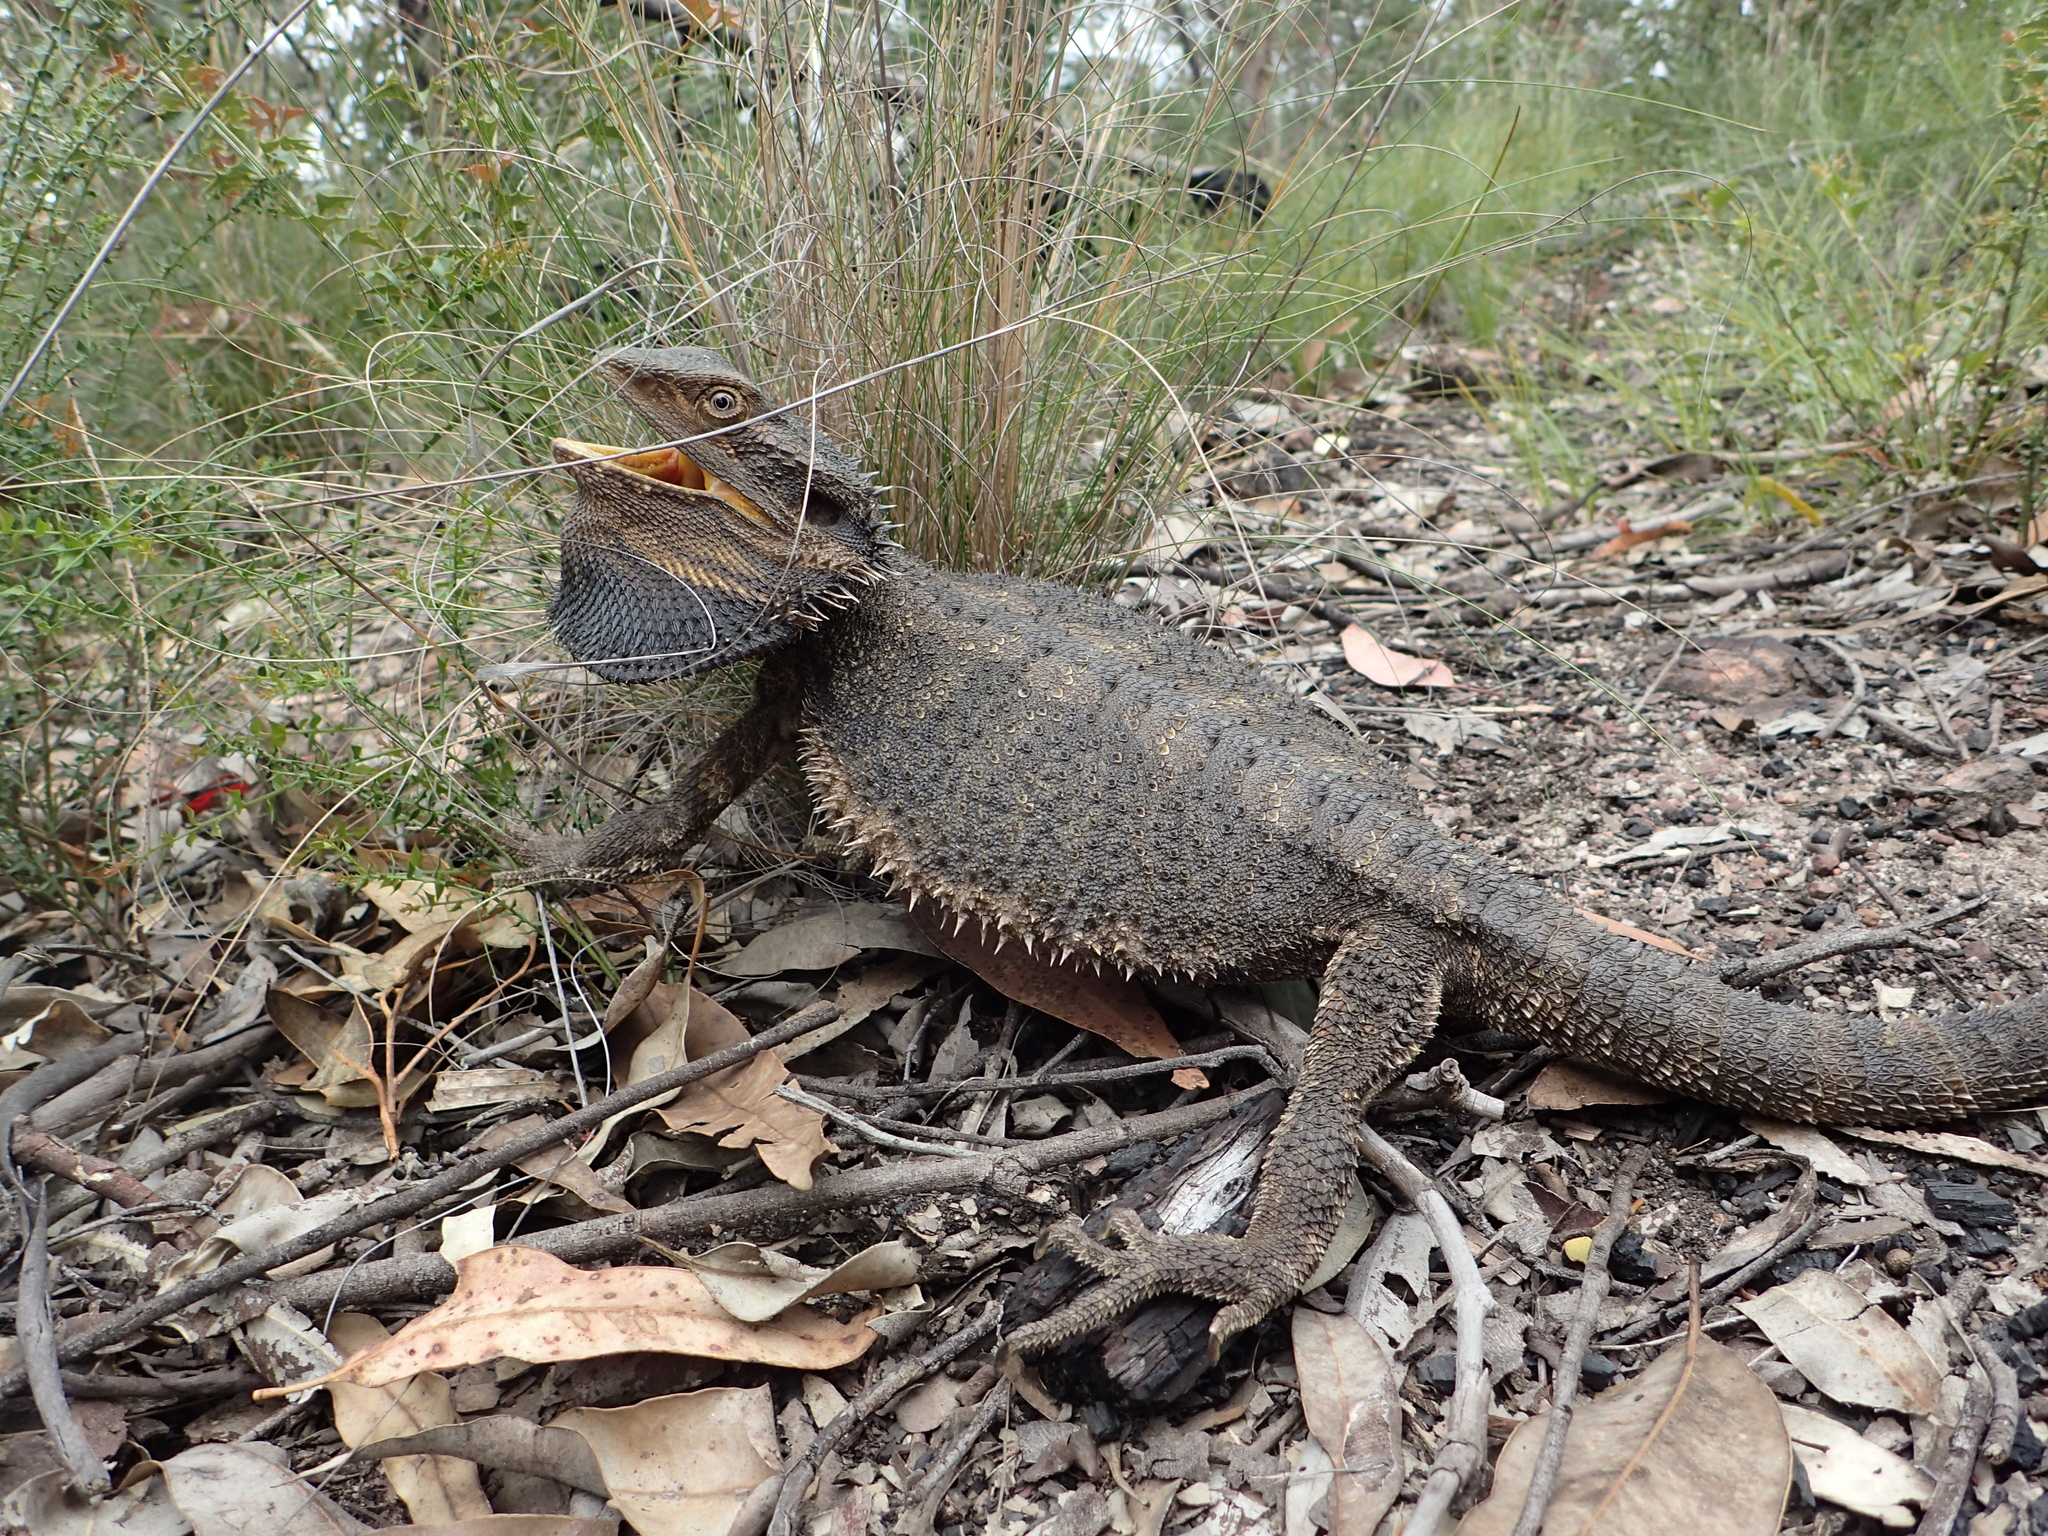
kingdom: Animalia
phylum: Chordata
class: Squamata
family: Agamidae
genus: Pogona
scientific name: Pogona barbata
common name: Bearded dragon
